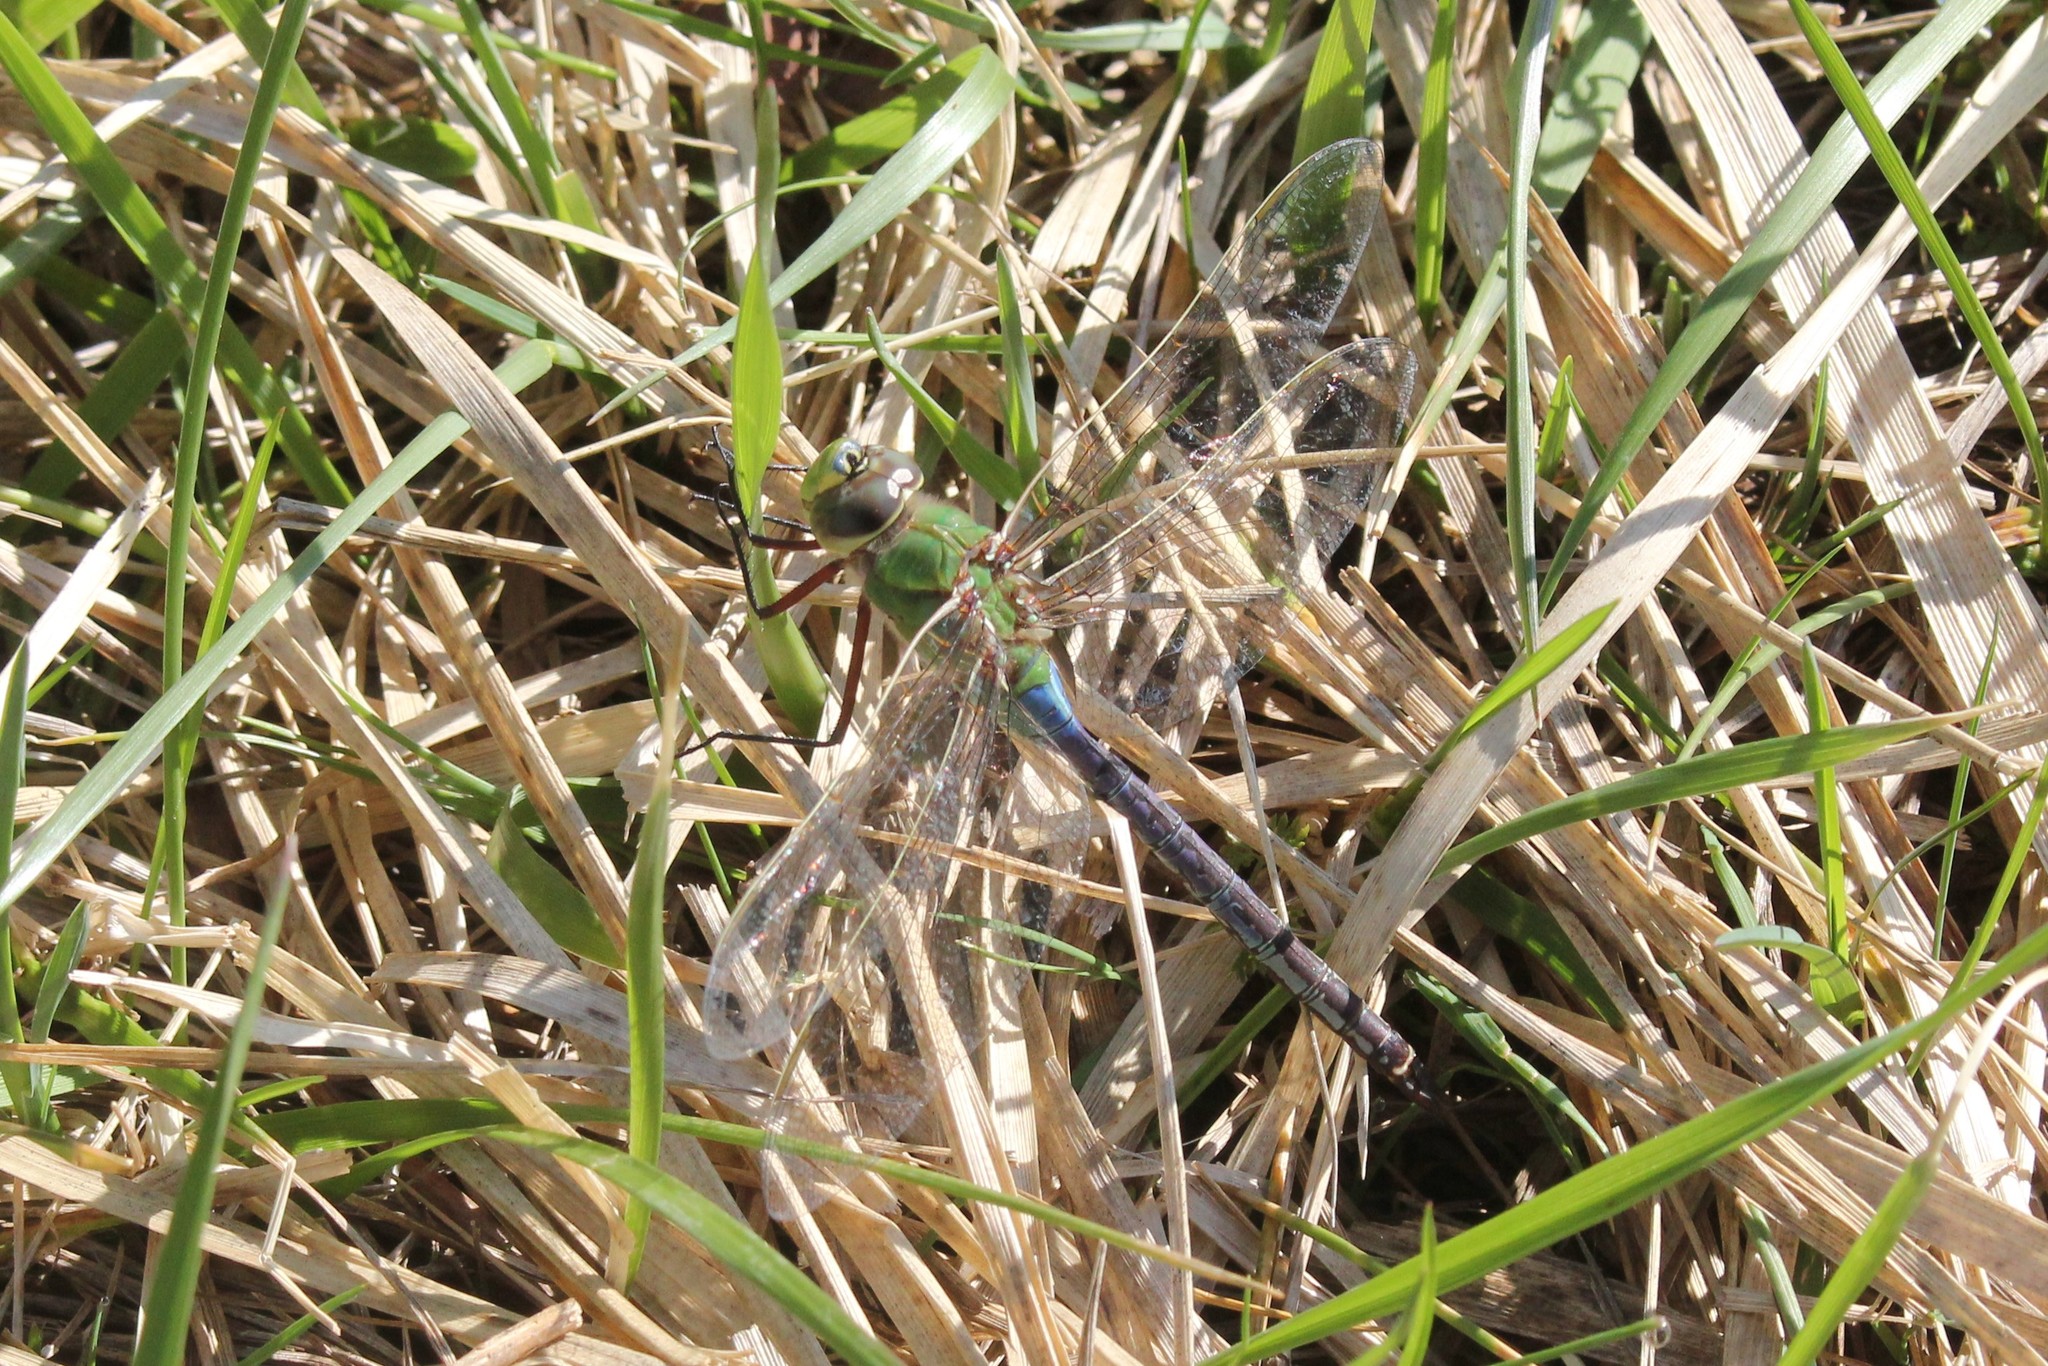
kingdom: Animalia
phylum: Arthropoda
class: Insecta
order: Odonata
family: Aeshnidae
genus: Anax
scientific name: Anax junius
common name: Common green darner
